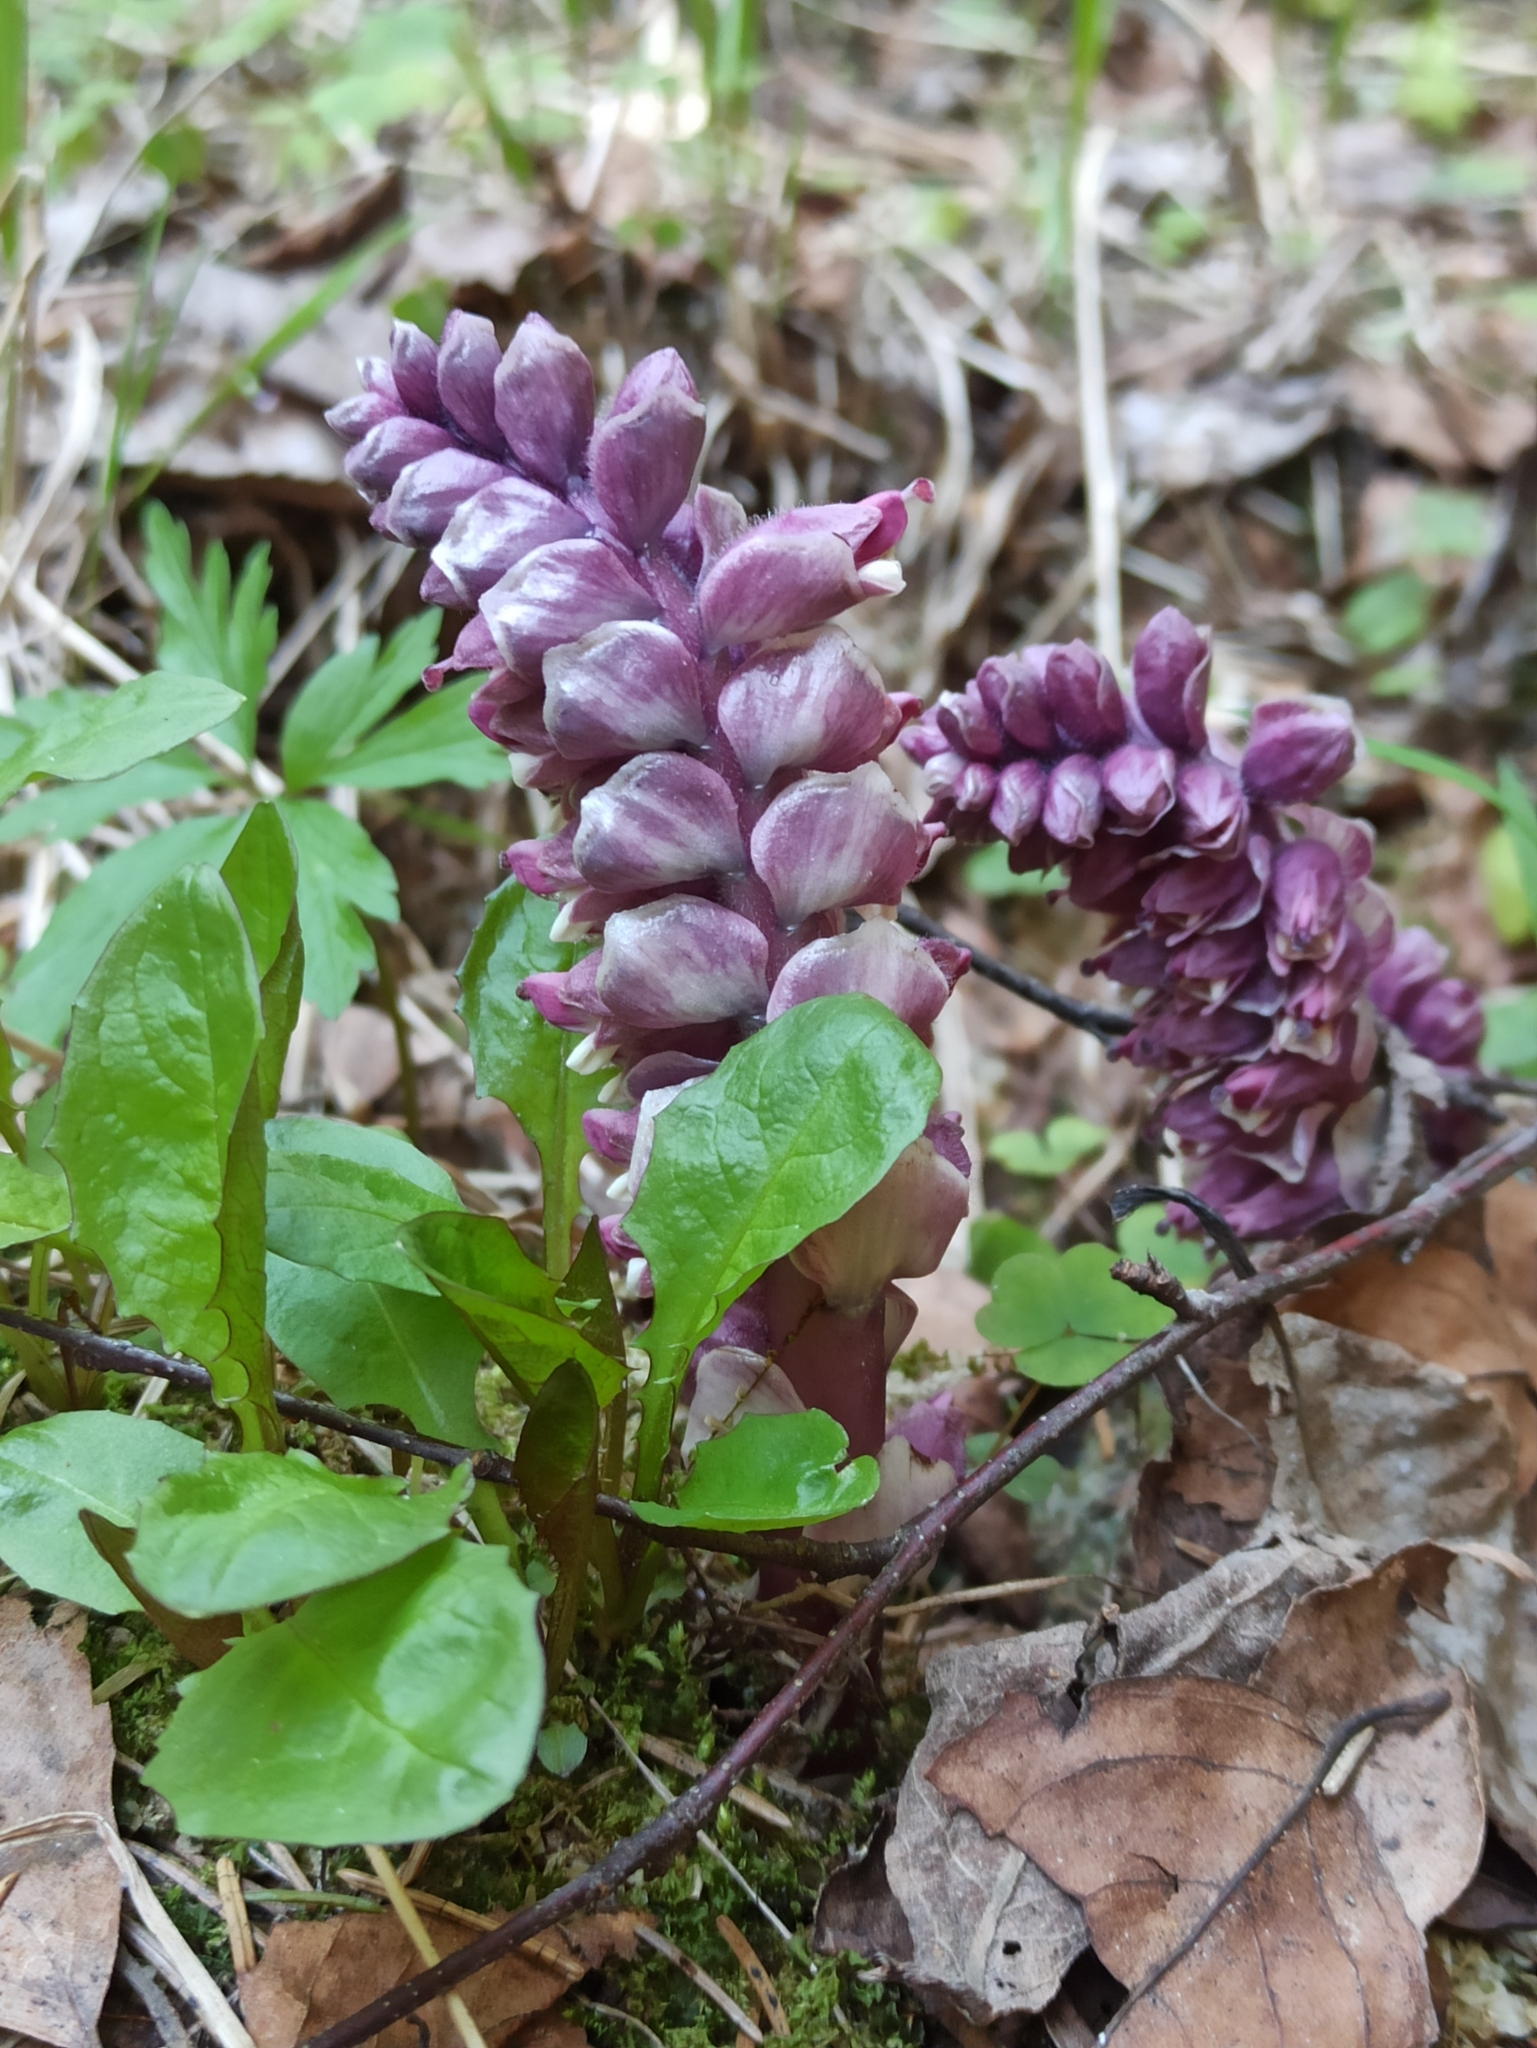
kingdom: Plantae
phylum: Tracheophyta
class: Magnoliopsida
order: Lamiales
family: Orobanchaceae
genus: Lathraea
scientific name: Lathraea squamaria
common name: Toothwort
